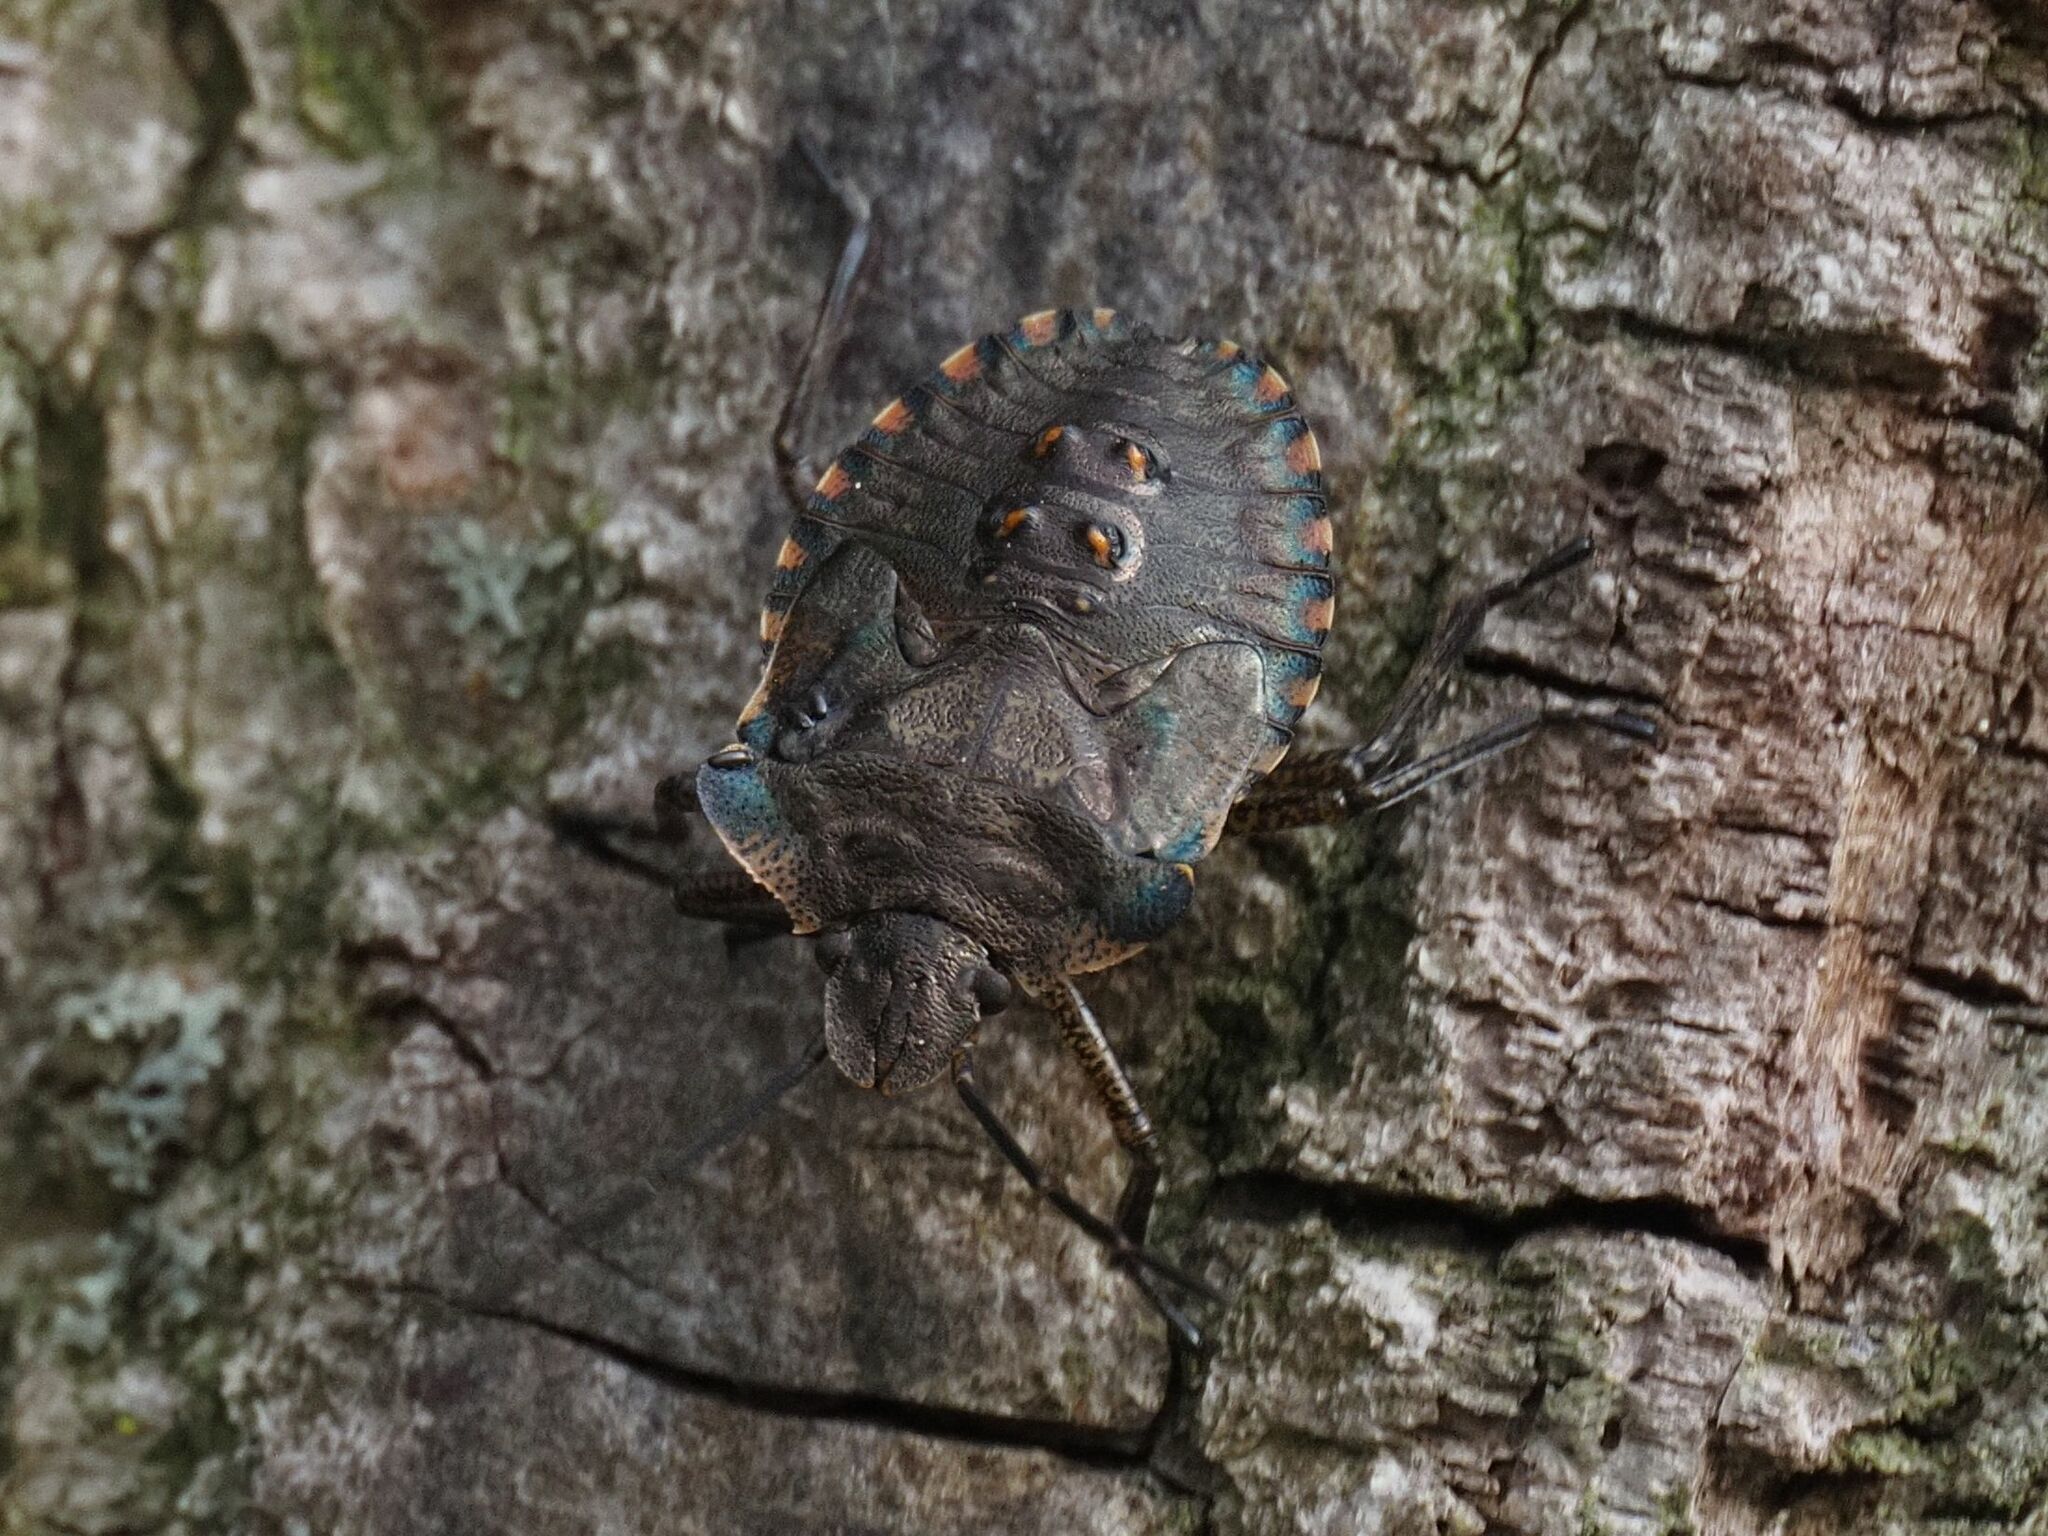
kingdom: Animalia
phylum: Arthropoda
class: Insecta
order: Hemiptera
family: Pentatomidae
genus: Pentatoma
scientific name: Pentatoma rufipes
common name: Forest bug
